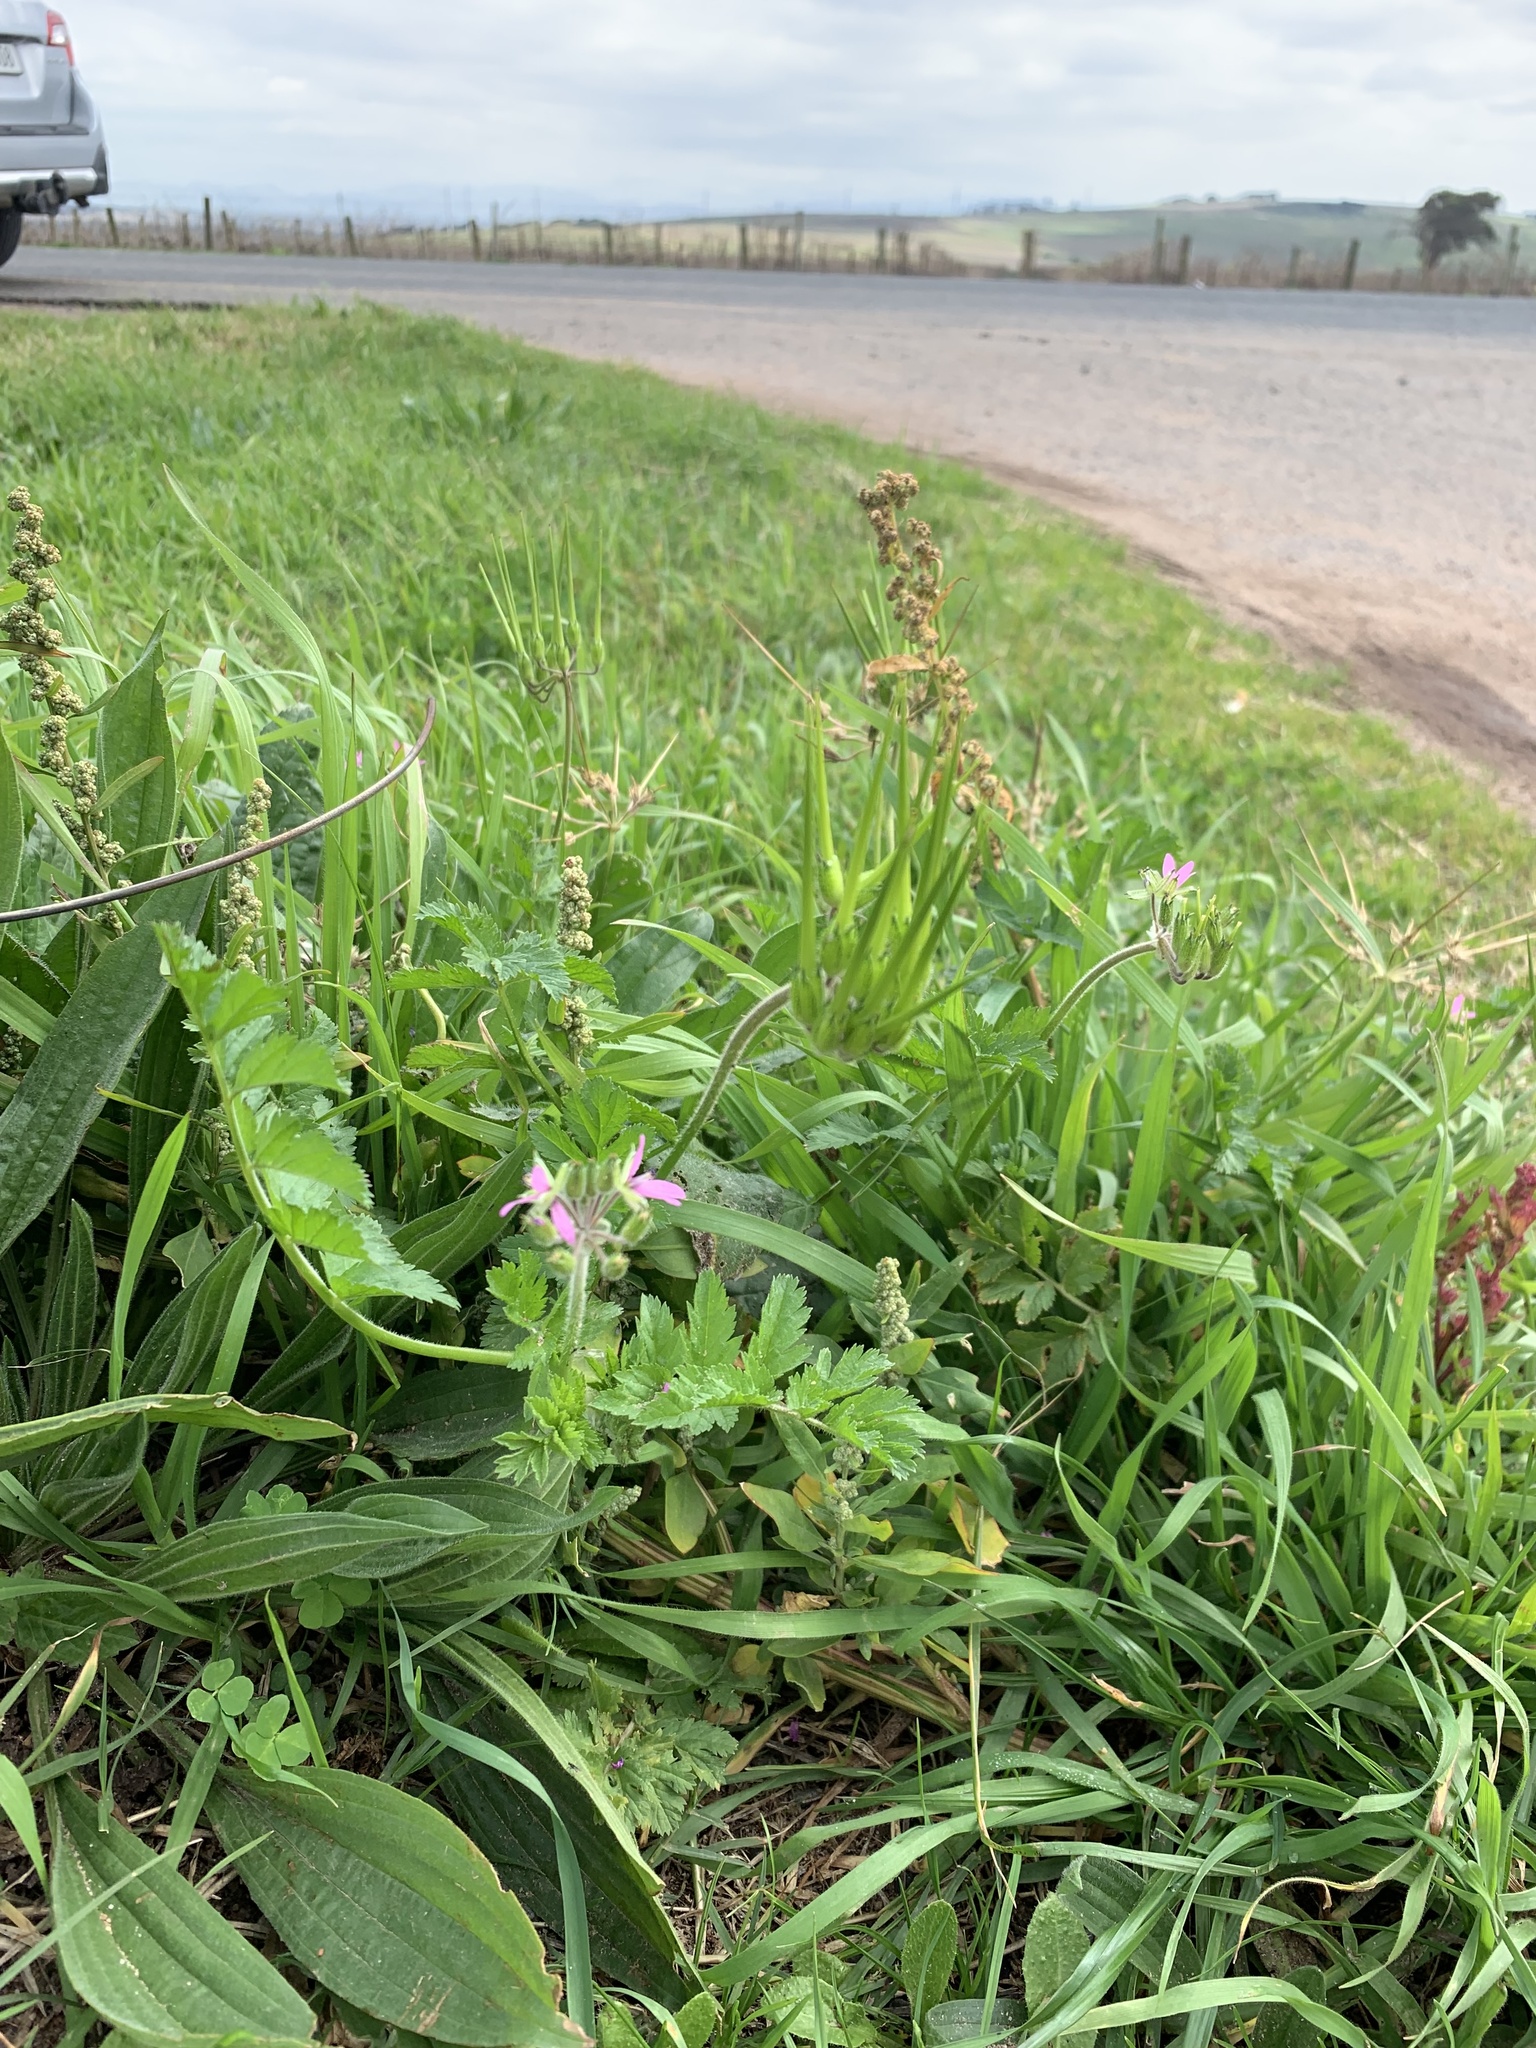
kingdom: Plantae
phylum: Tracheophyta
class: Magnoliopsida
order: Geraniales
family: Geraniaceae
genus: Erodium
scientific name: Erodium moschatum
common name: Musk stork's-bill
